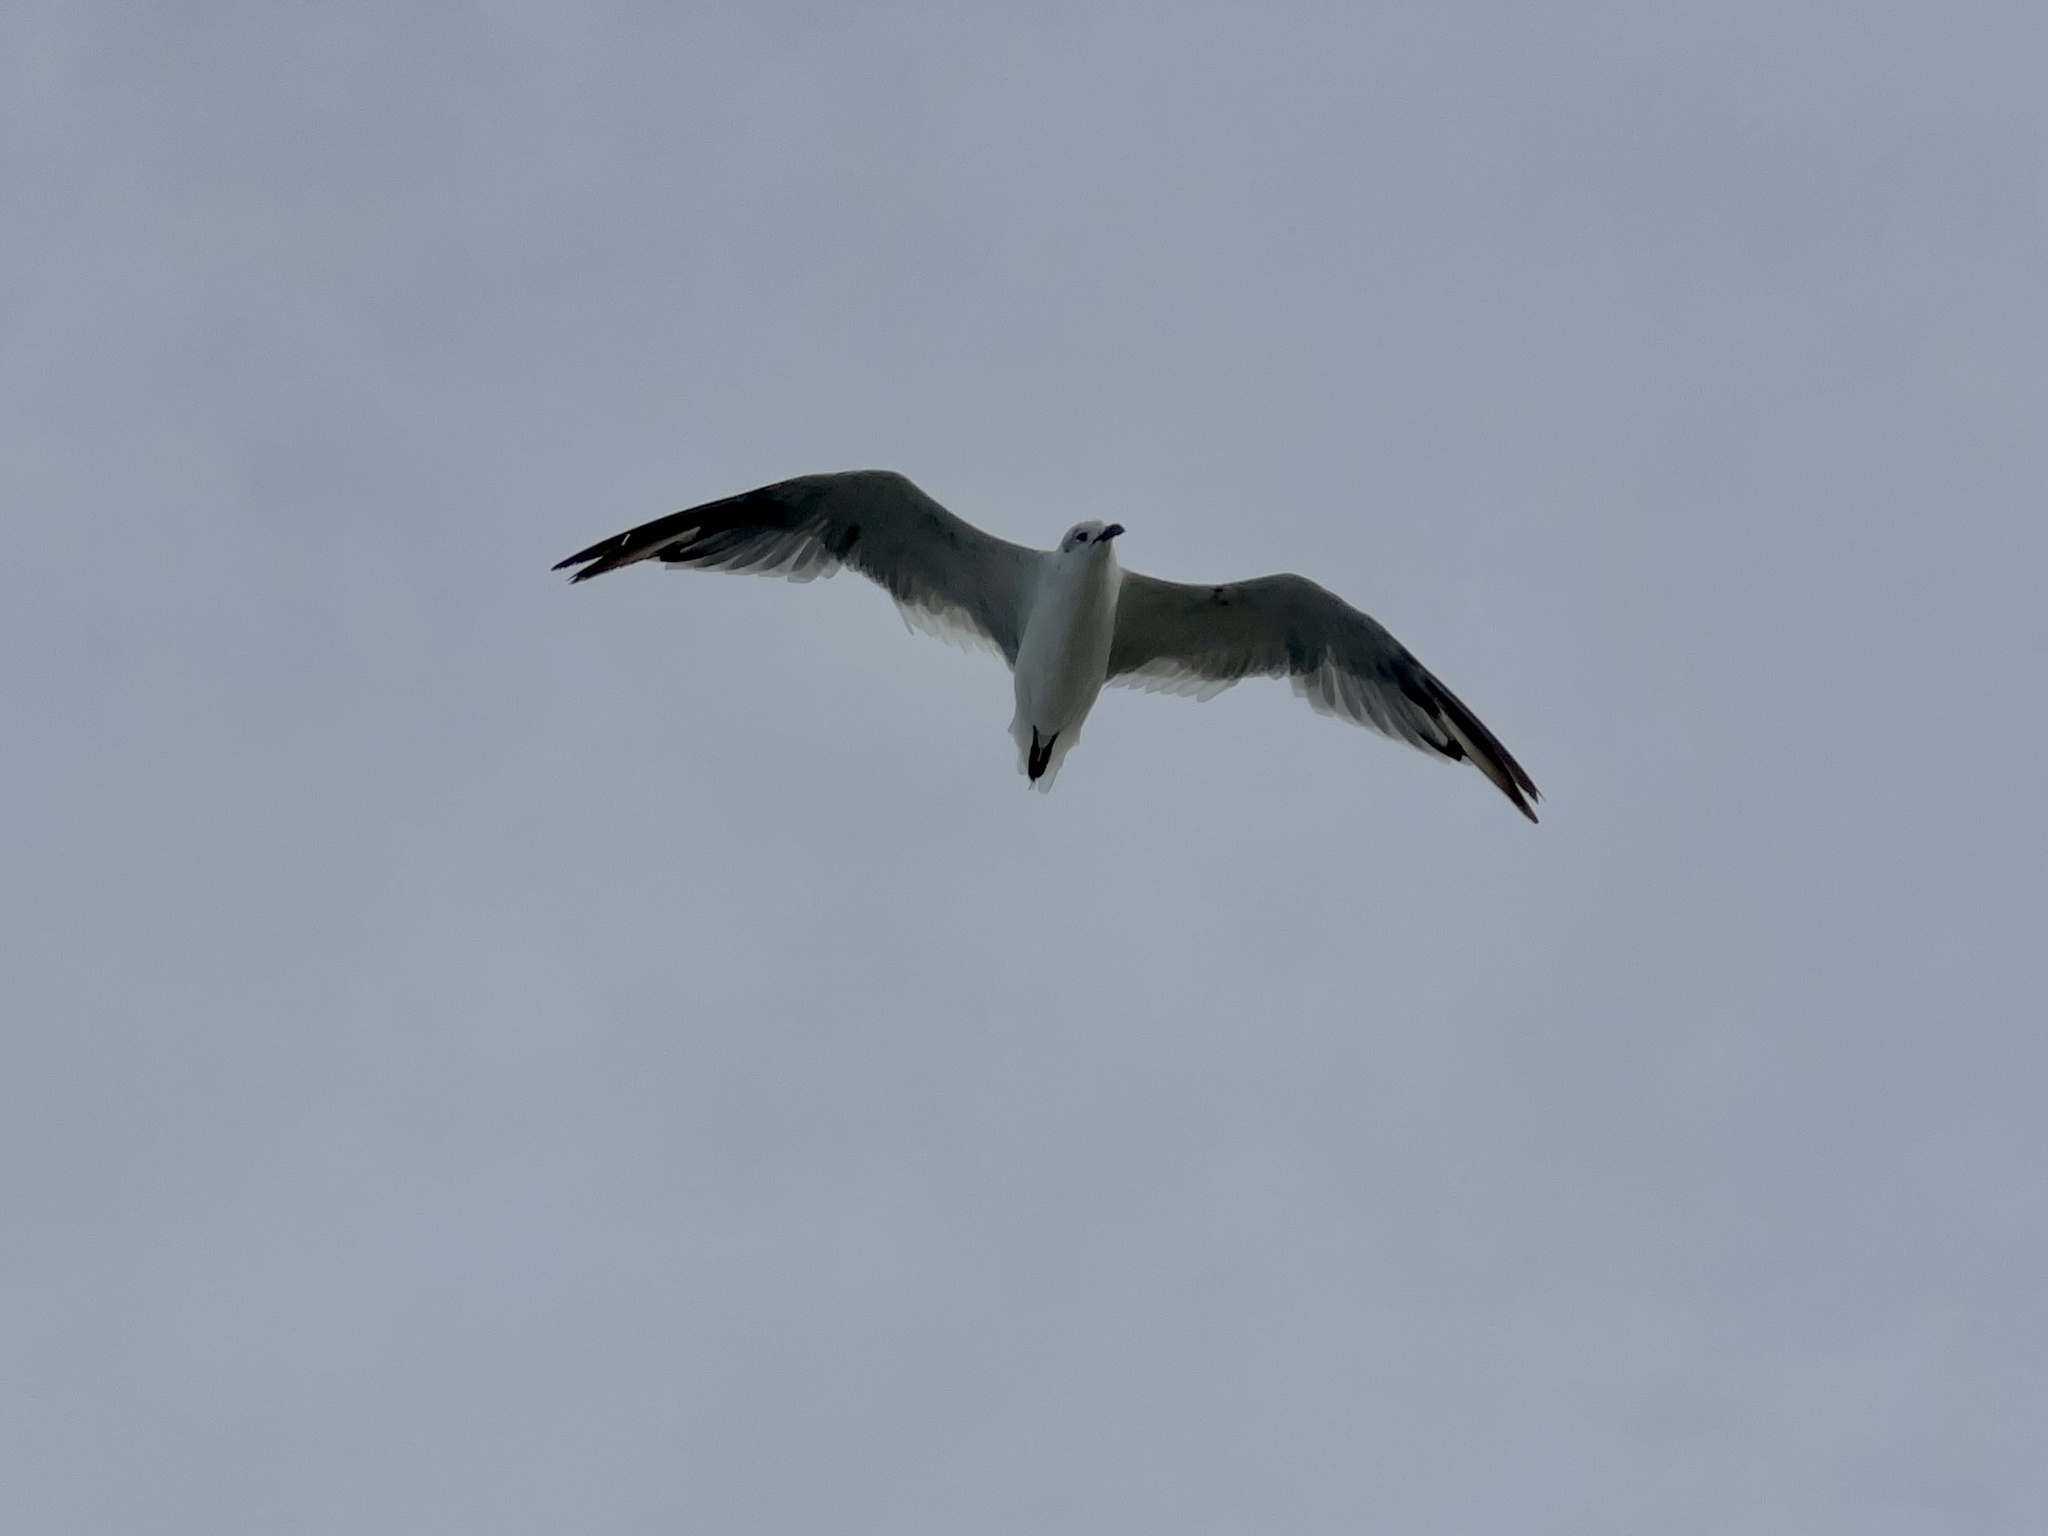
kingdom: Animalia
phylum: Chordata
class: Aves
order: Charadriiformes
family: Laridae
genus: Leucophaeus
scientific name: Leucophaeus atricilla
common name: Laughing gull
